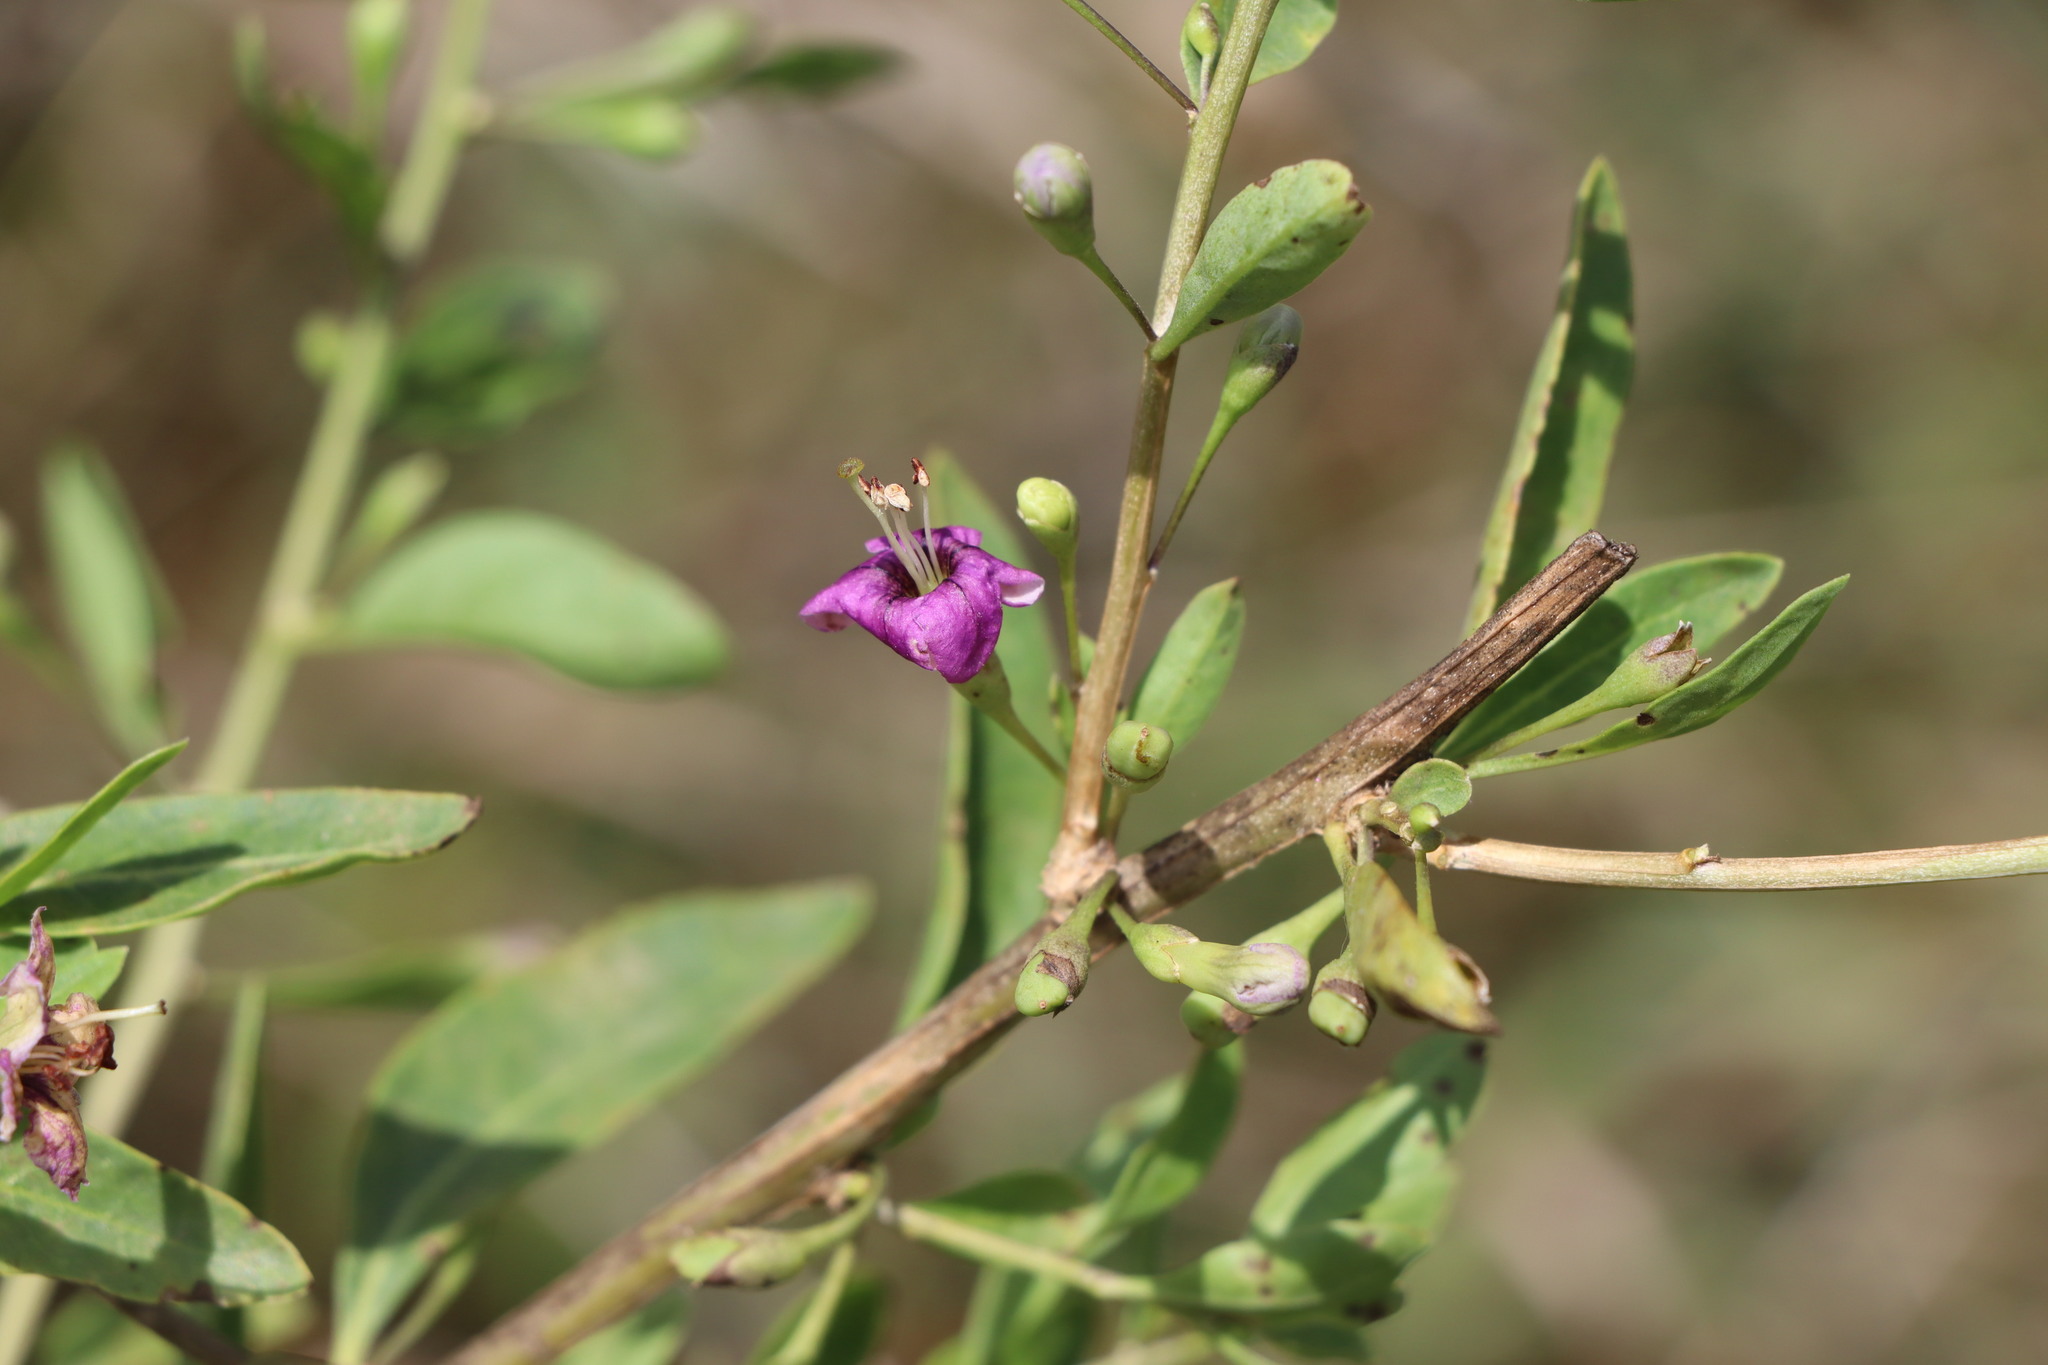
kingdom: Plantae
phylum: Tracheophyta
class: Magnoliopsida
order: Solanales
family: Solanaceae
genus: Lycium
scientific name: Lycium barbarum
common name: Duke of argyll's teaplant
